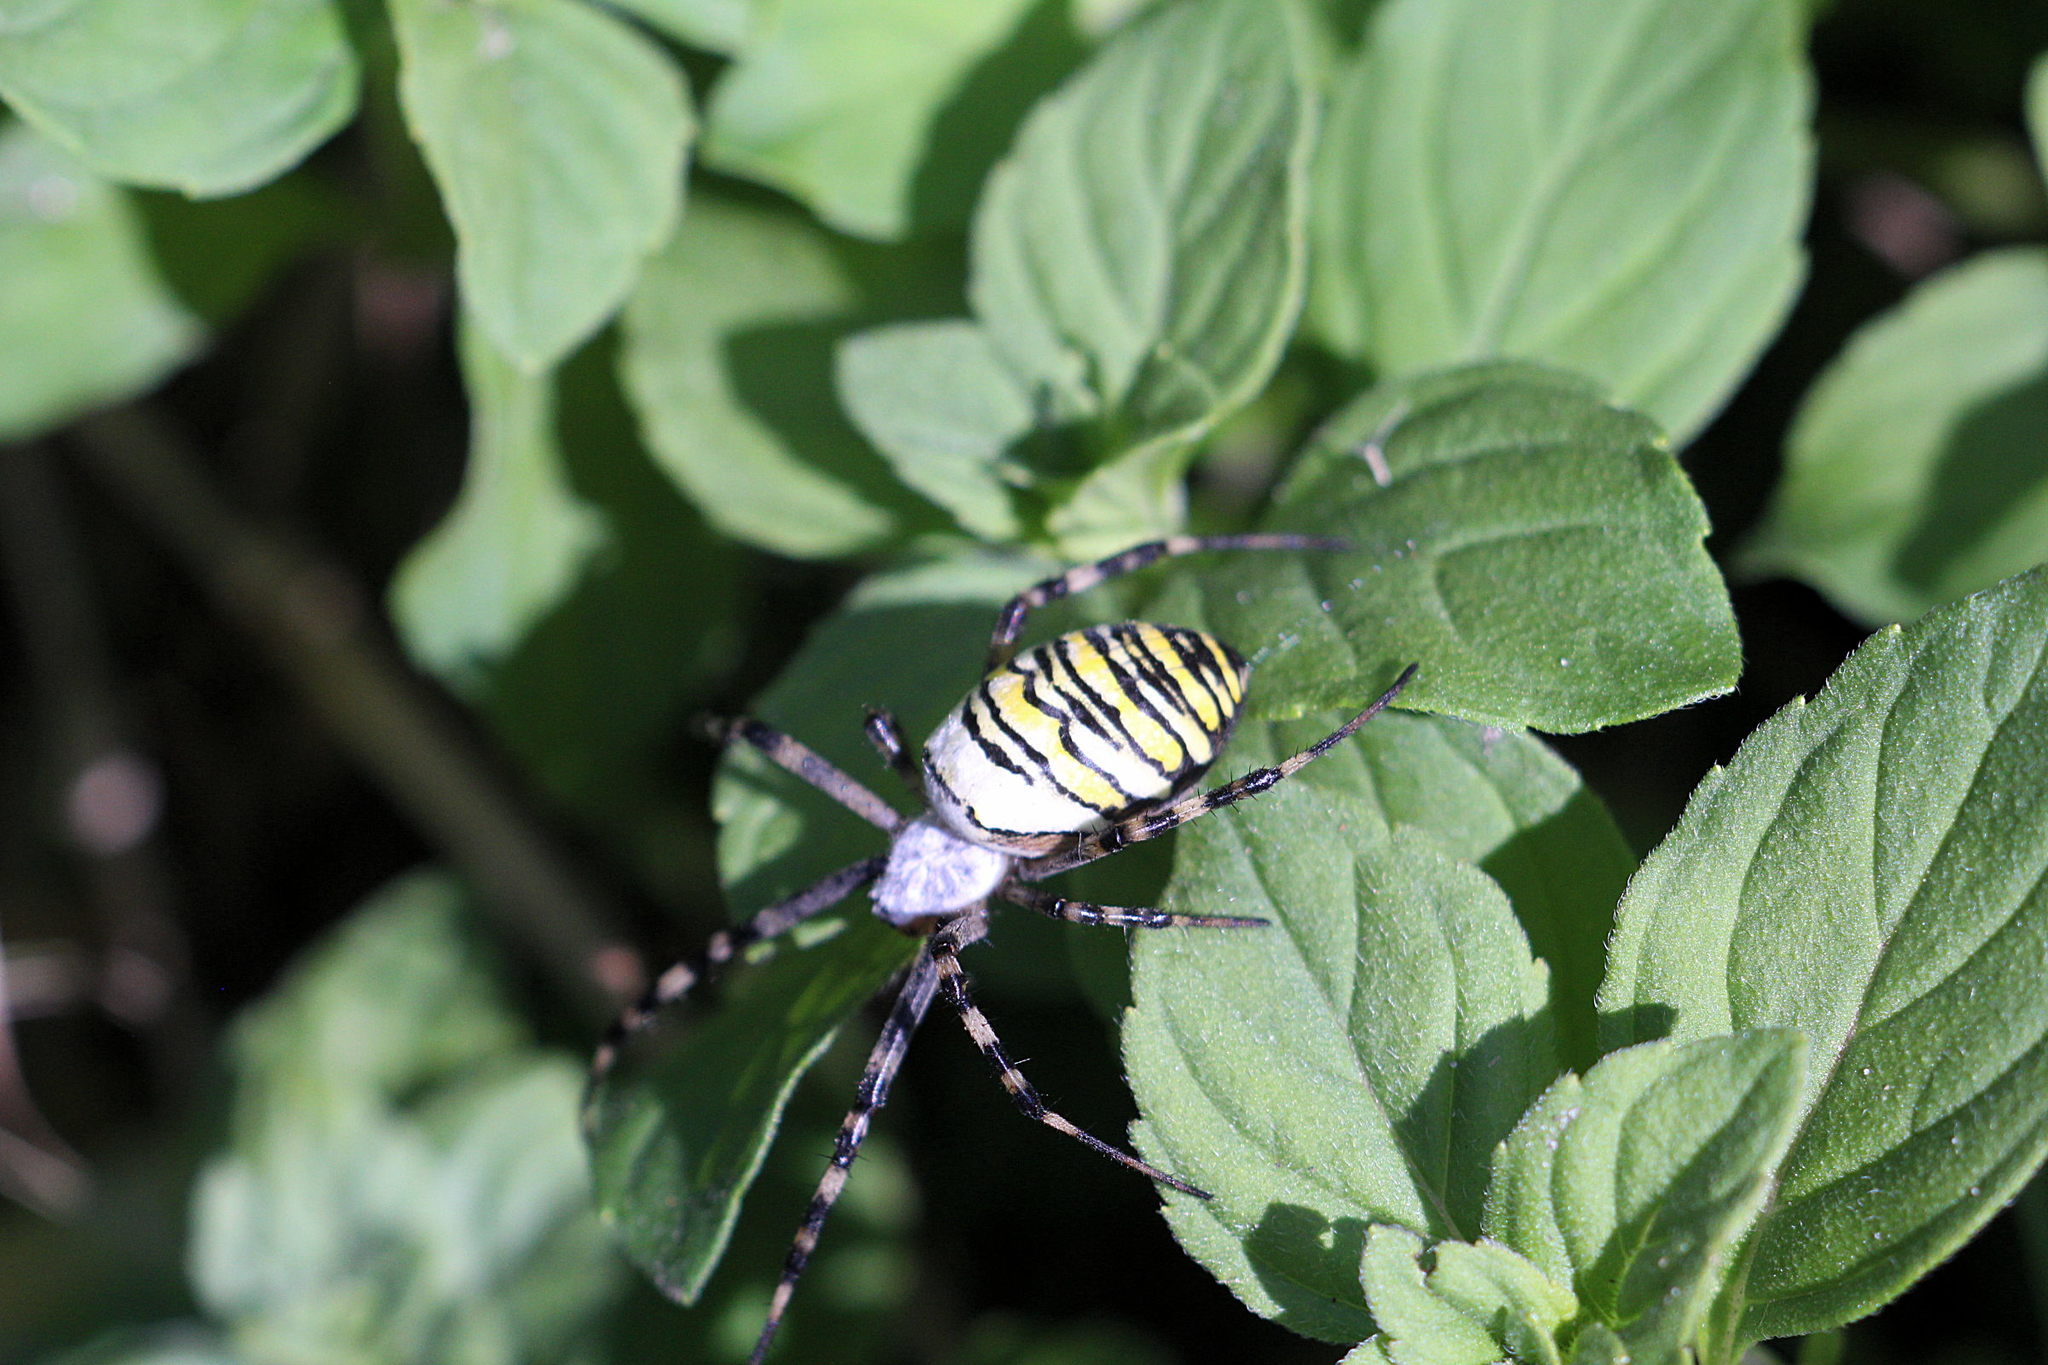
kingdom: Animalia
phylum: Arthropoda
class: Arachnida
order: Araneae
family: Araneidae
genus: Argiope
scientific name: Argiope bruennichi
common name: Wasp spider
